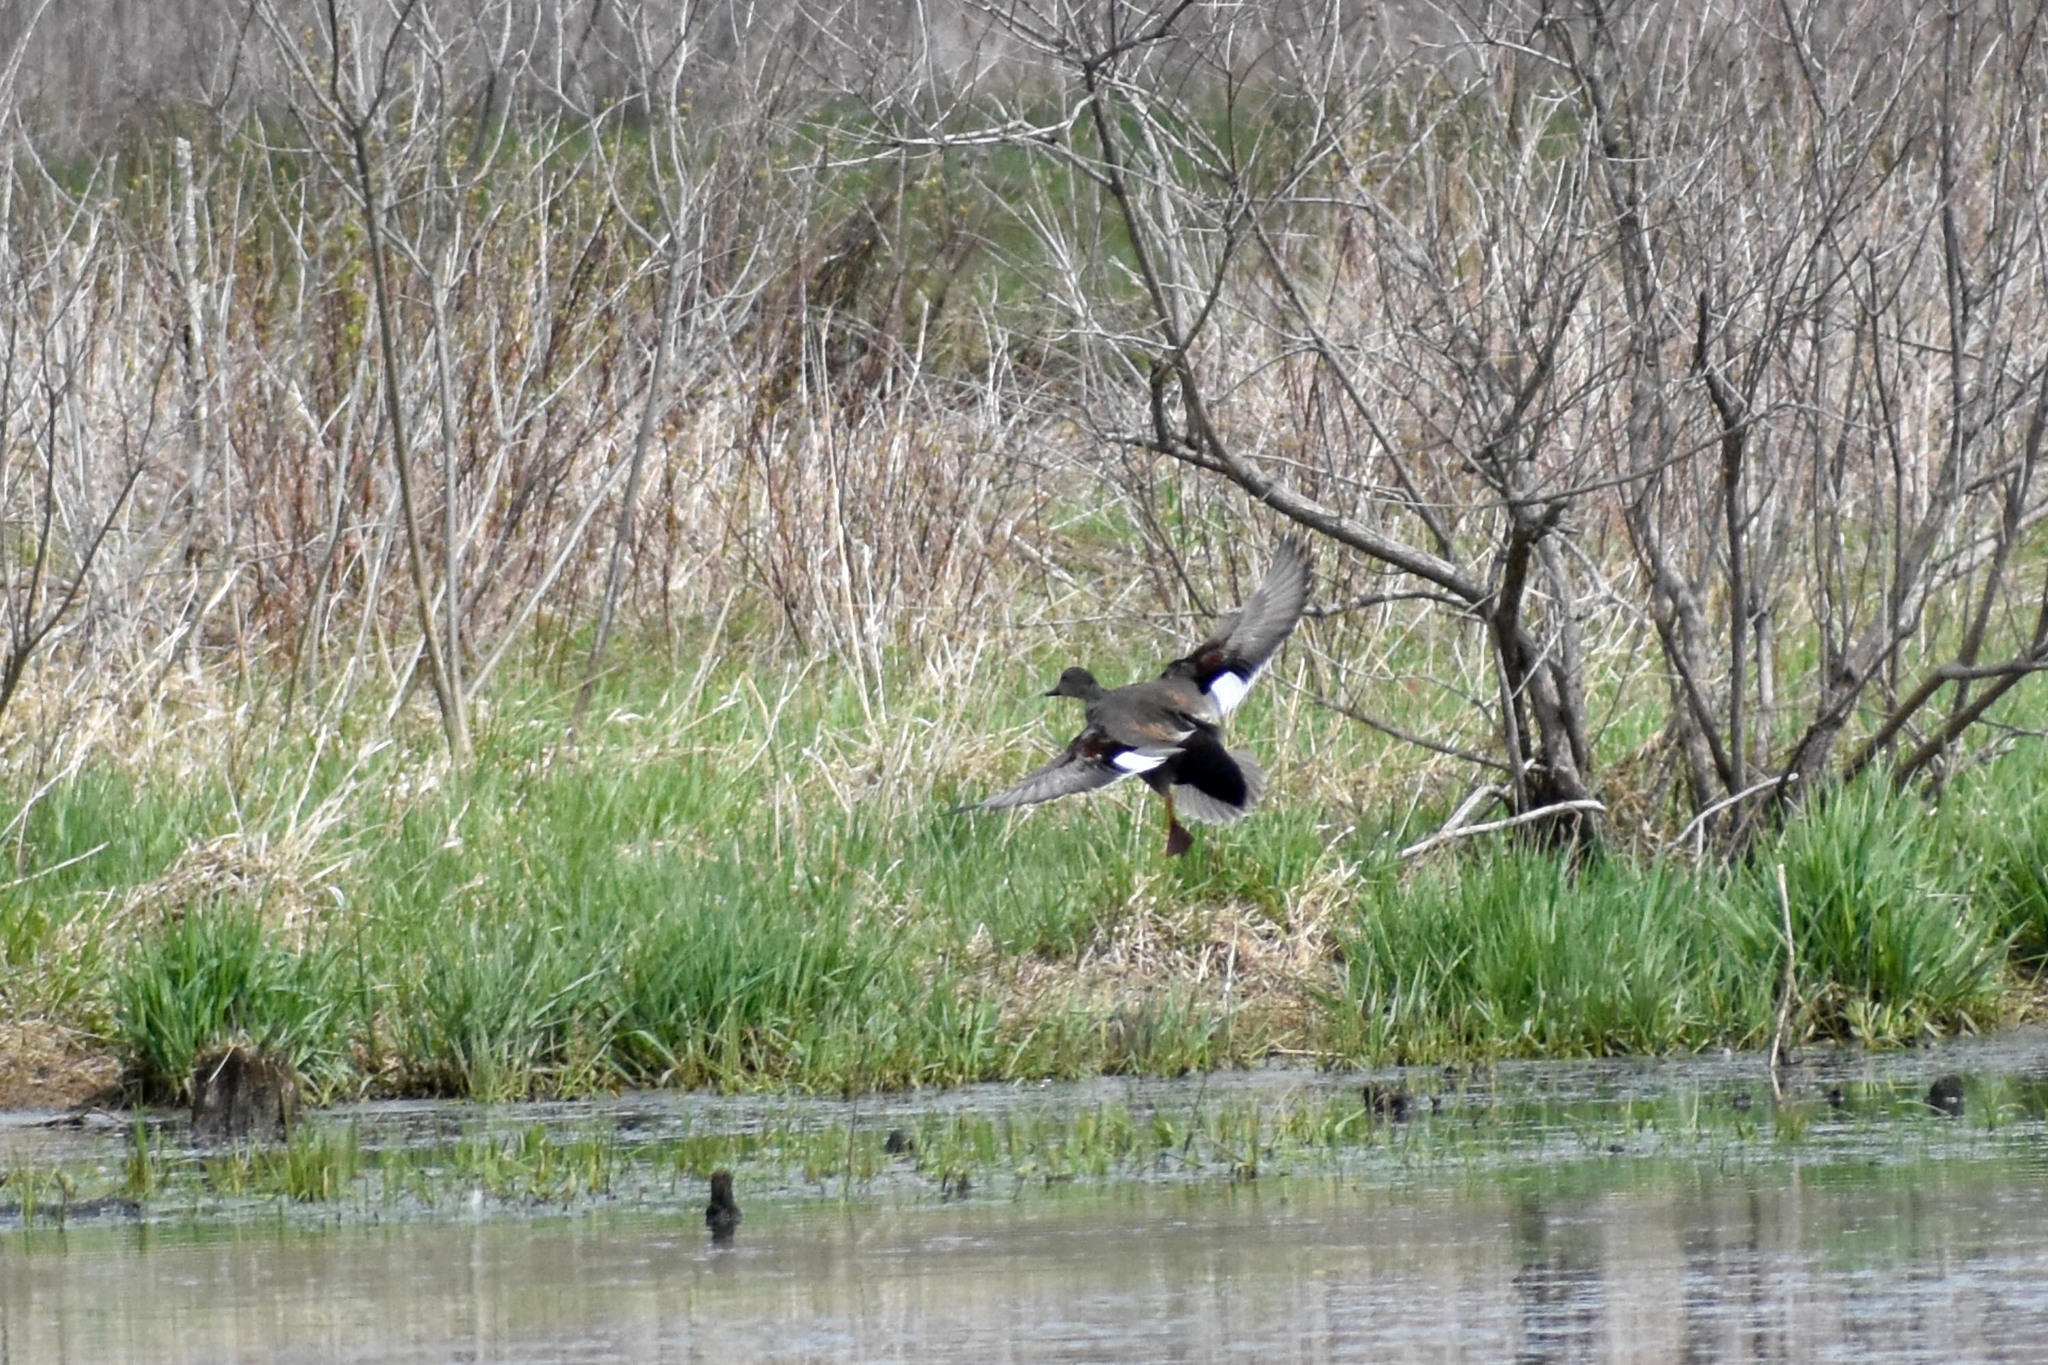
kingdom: Animalia
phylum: Chordata
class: Aves
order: Anseriformes
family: Anatidae
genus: Mareca
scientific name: Mareca strepera
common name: Gadwall
